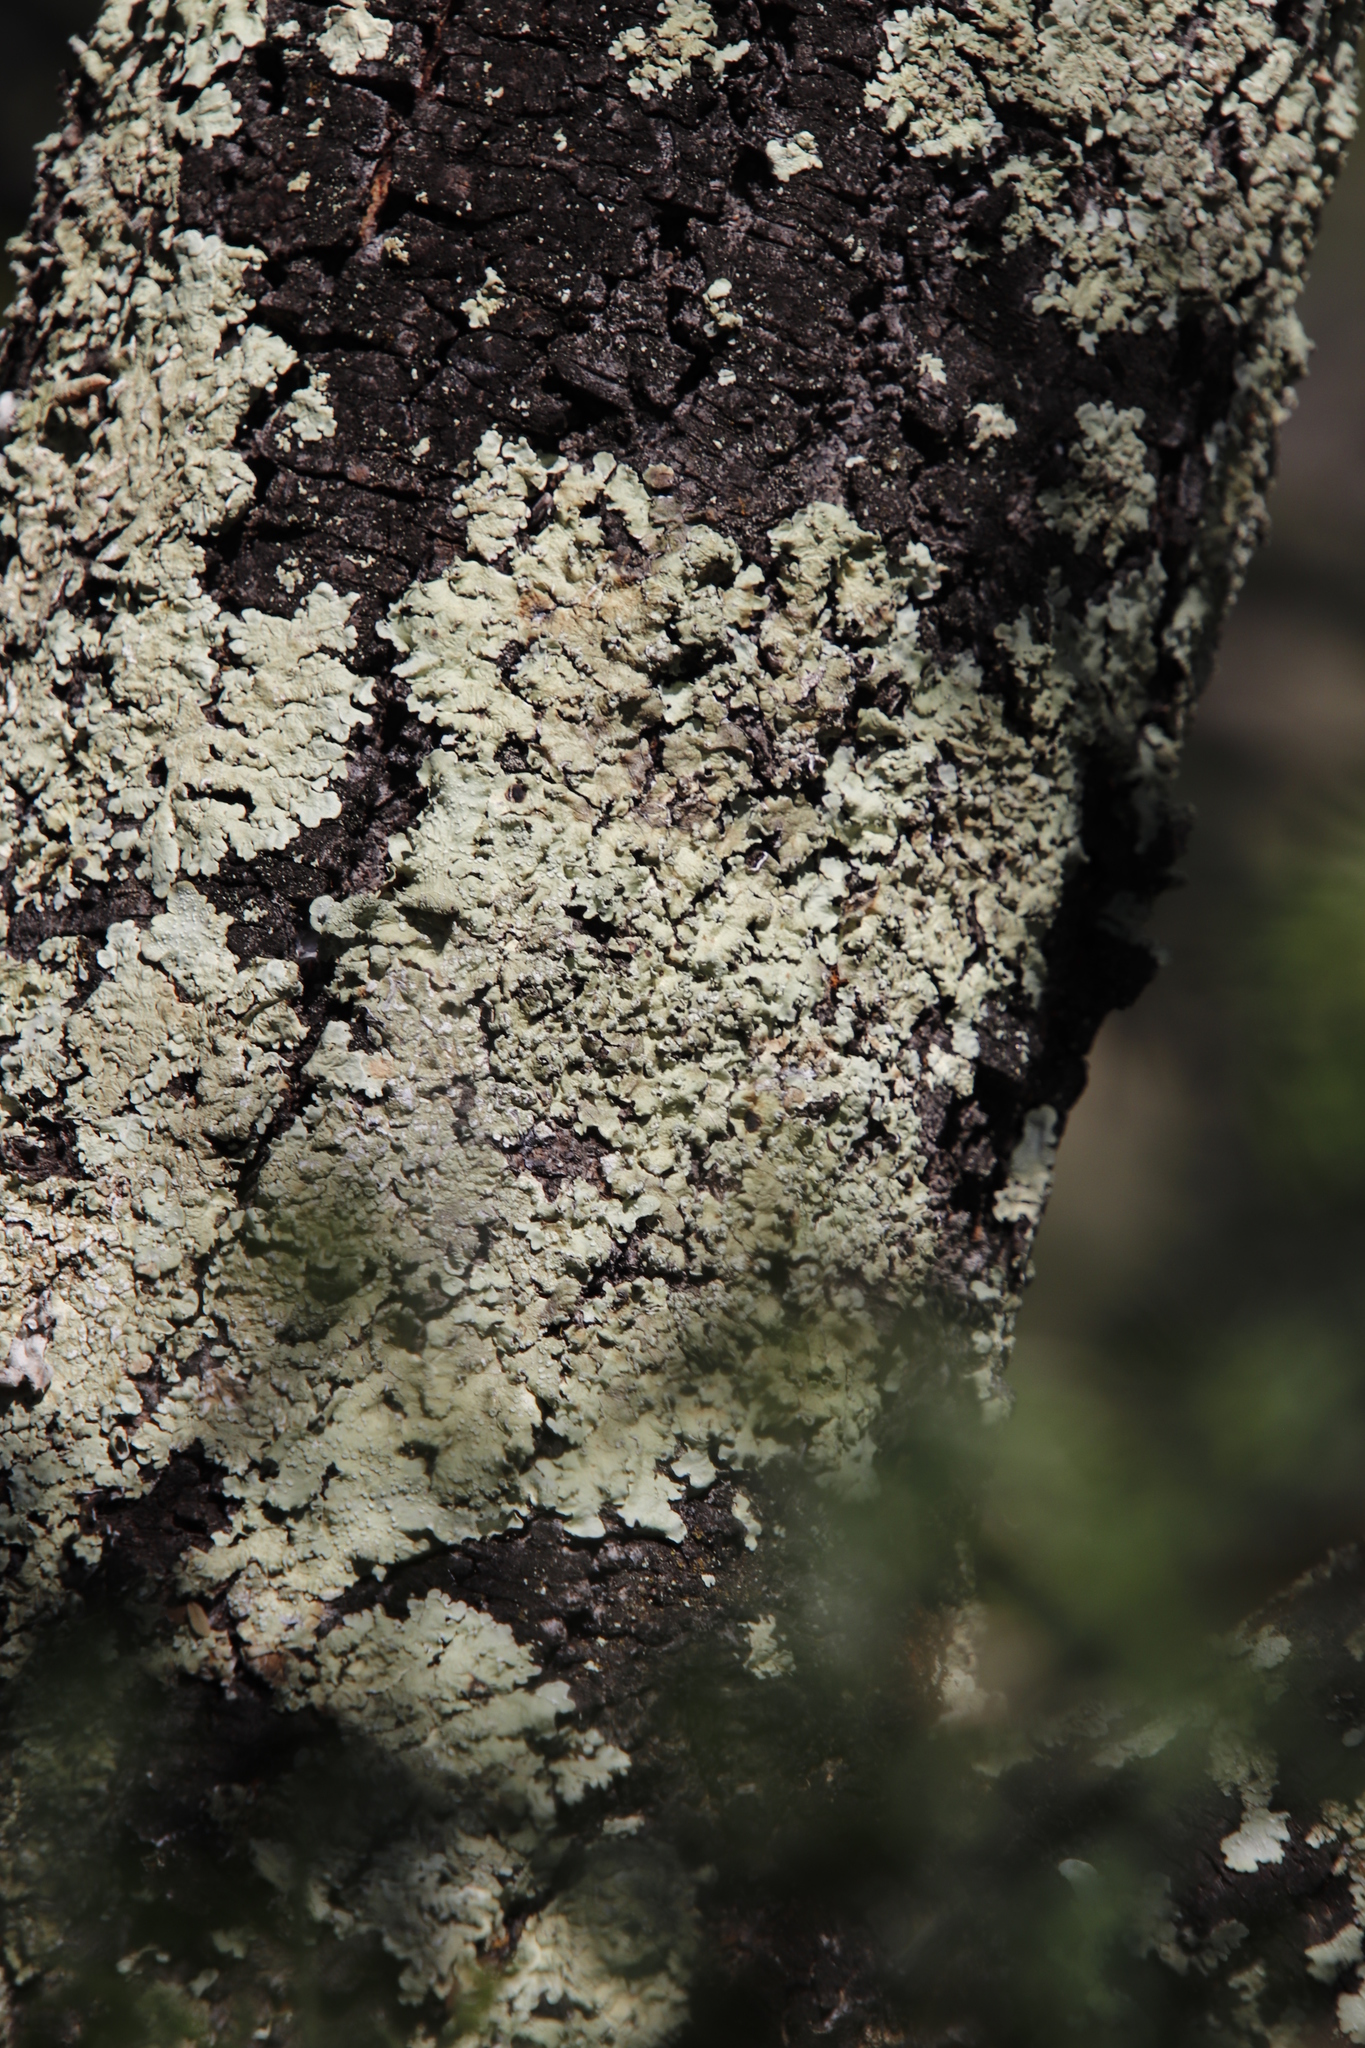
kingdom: Fungi
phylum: Ascomycota
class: Lecanoromycetes
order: Lecanorales
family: Parmeliaceae
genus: Flavopunctelia
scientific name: Flavopunctelia flaventior
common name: Speckled greenshield
